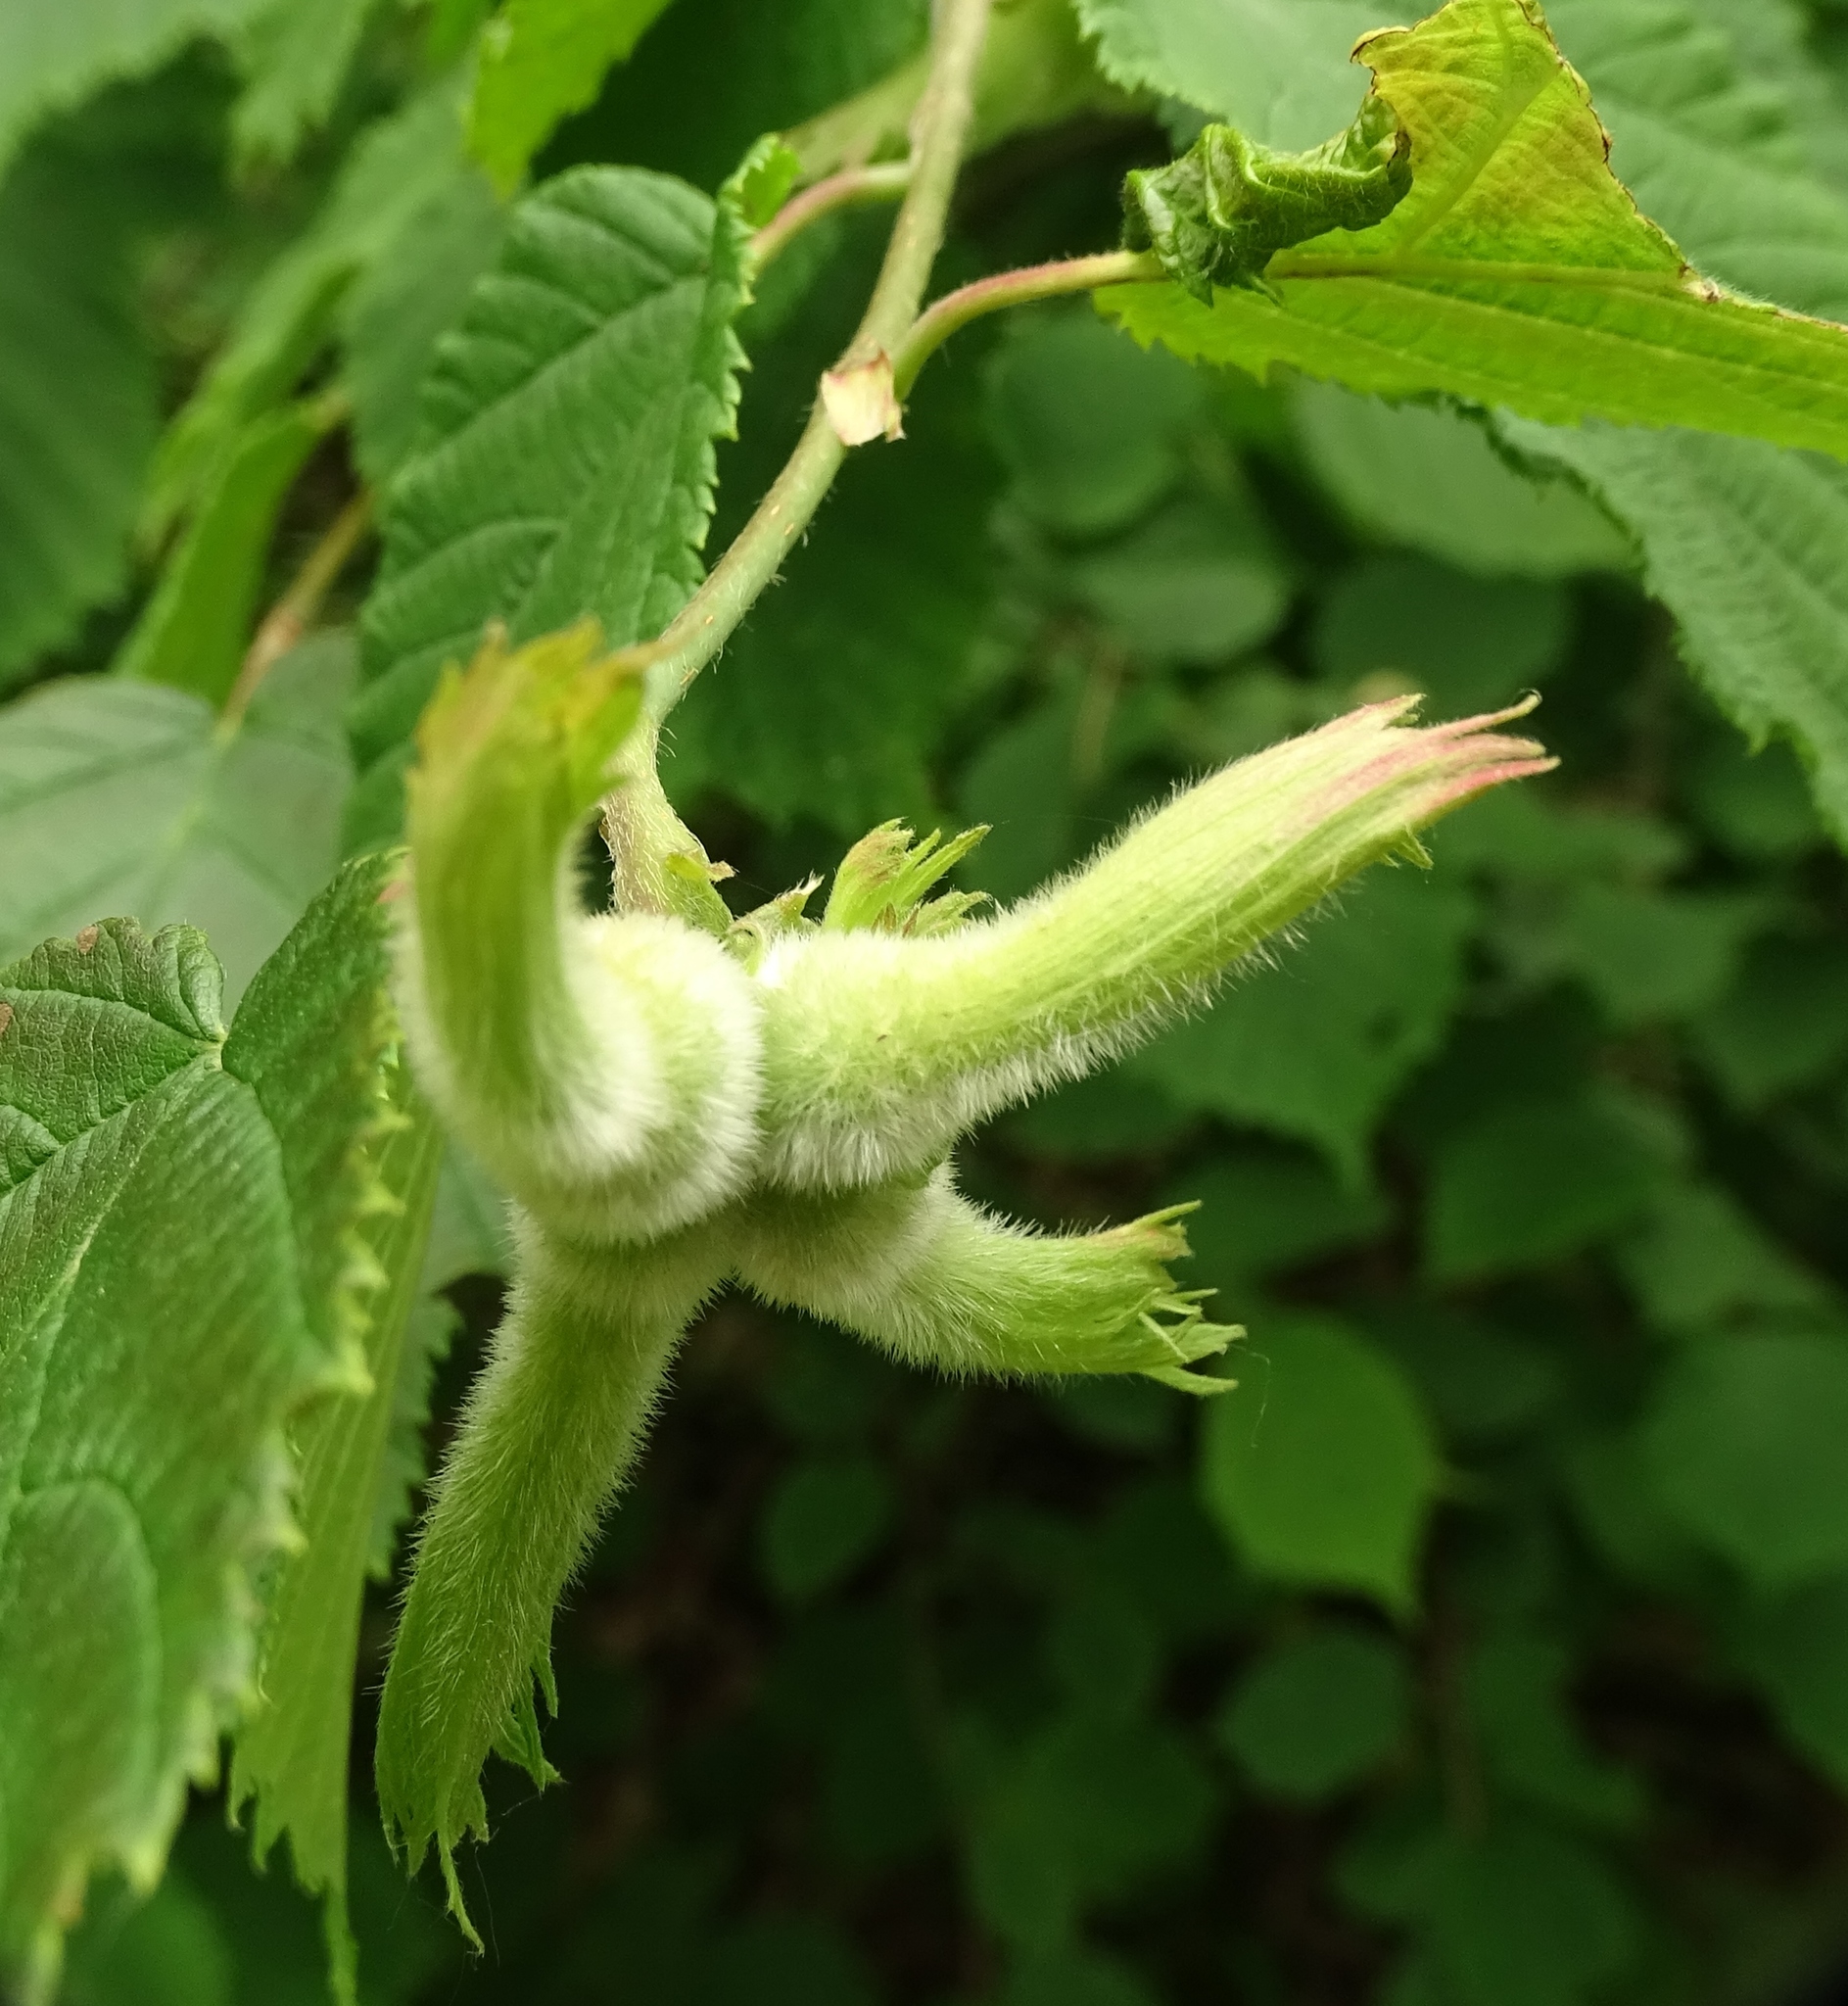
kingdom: Plantae
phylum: Tracheophyta
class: Magnoliopsida
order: Fagales
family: Betulaceae
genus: Corylus
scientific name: Corylus cornuta
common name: Beaked hazel
